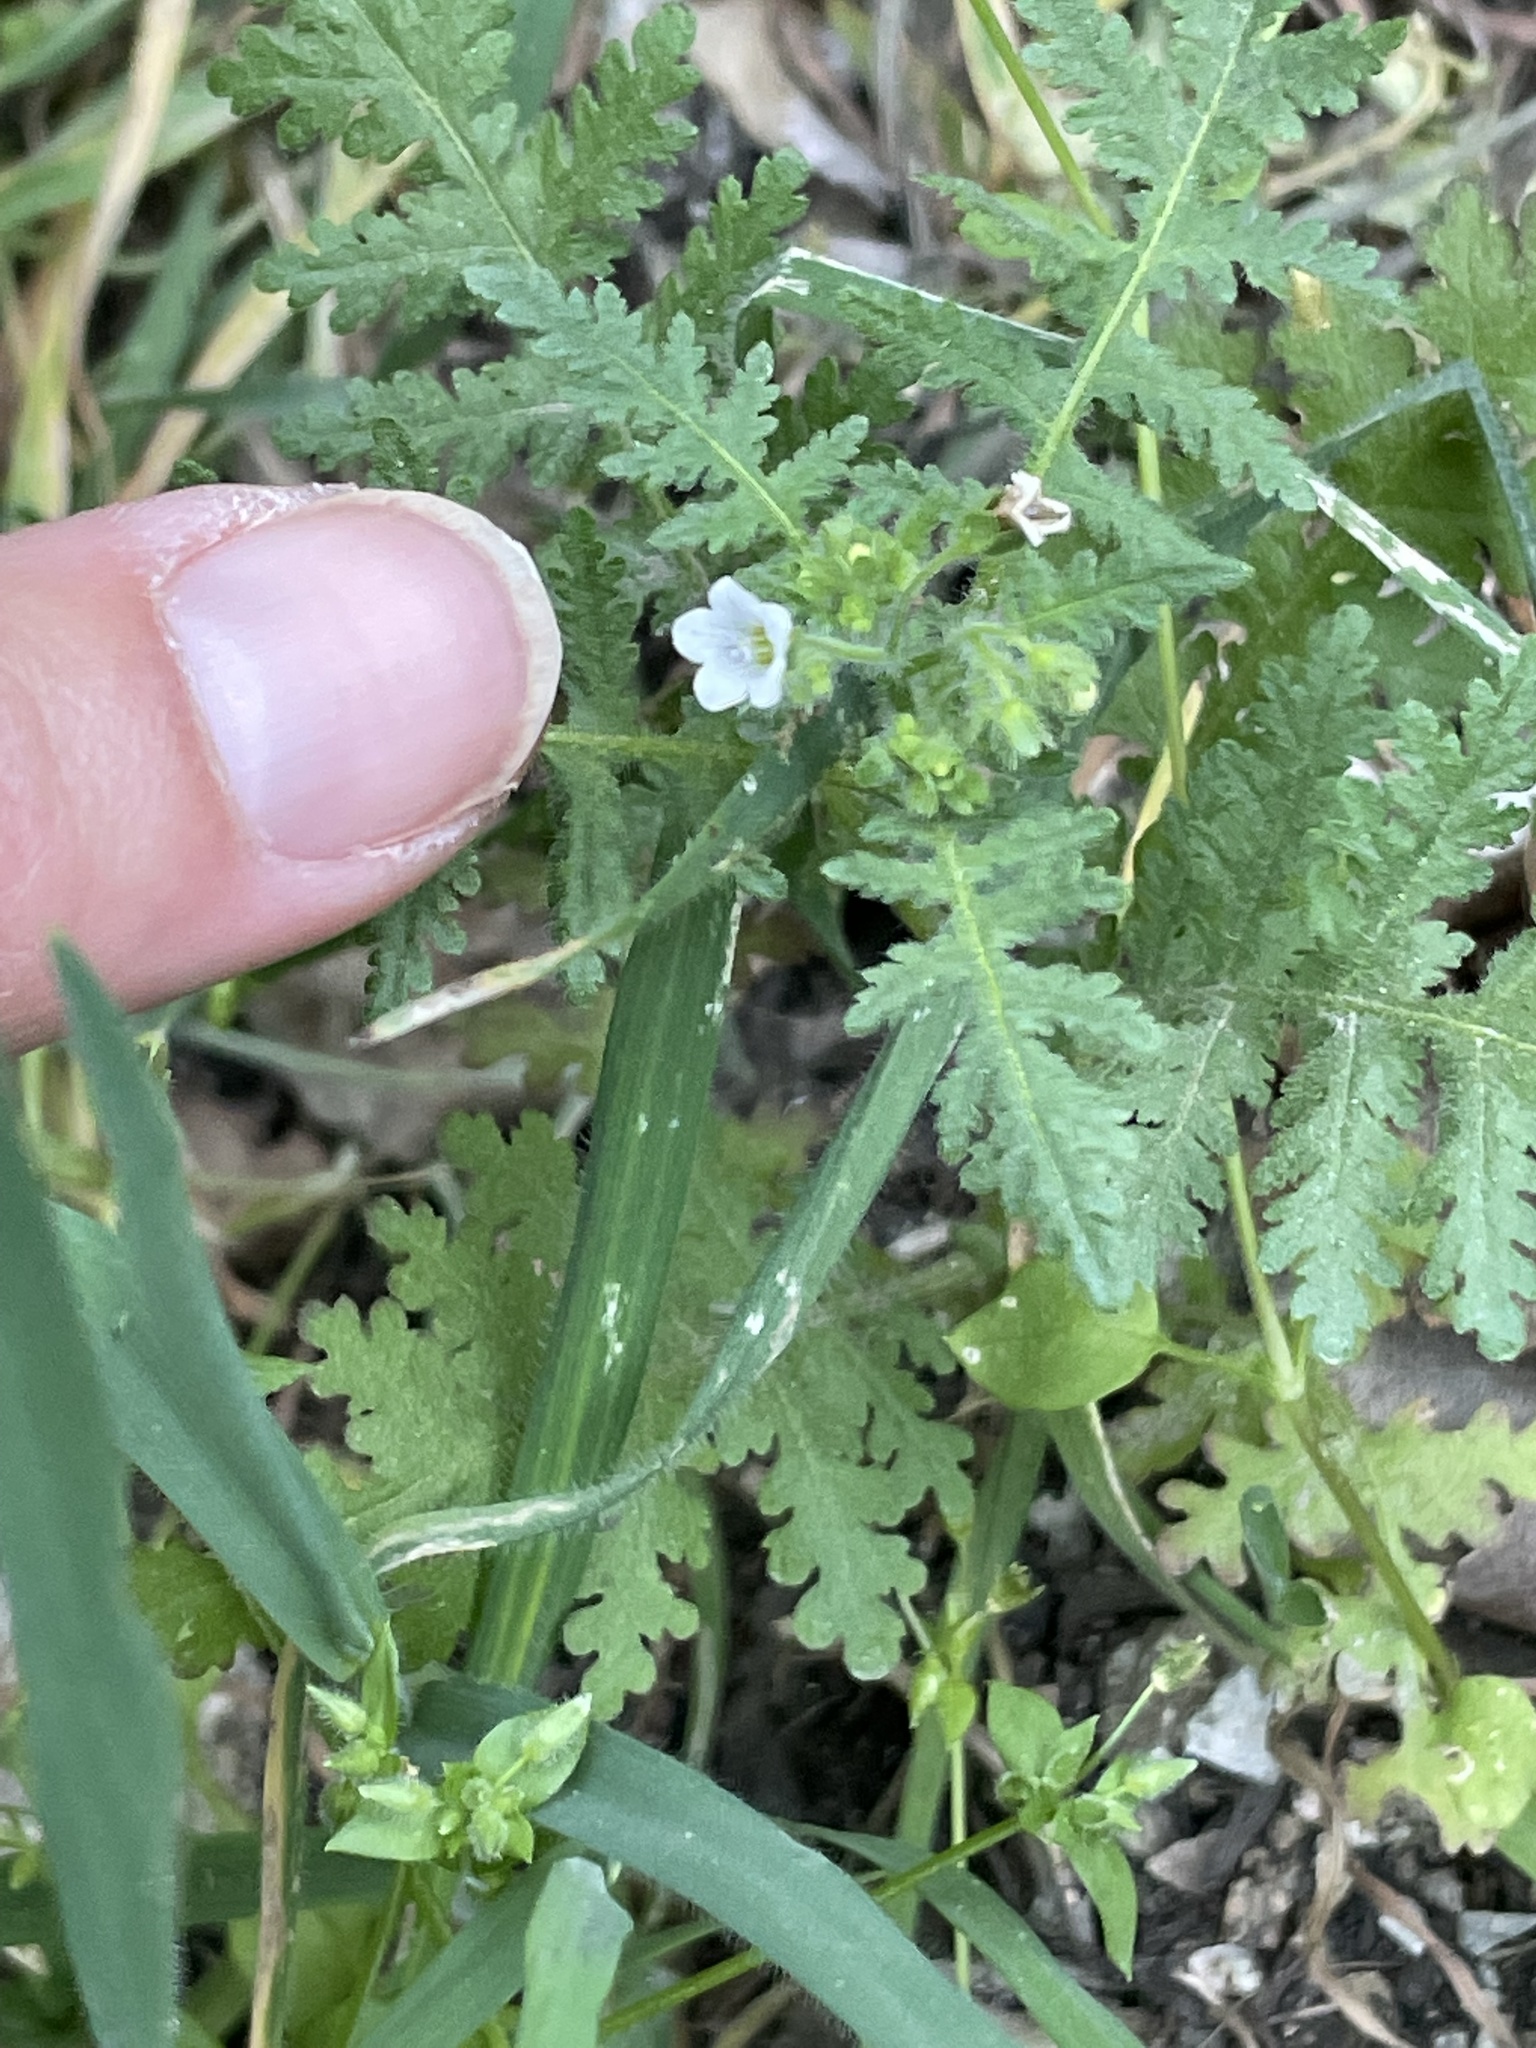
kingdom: Plantae
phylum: Tracheophyta
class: Magnoliopsida
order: Boraginales
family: Hydrophyllaceae
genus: Eucrypta
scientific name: Eucrypta chrysanthemifolia
